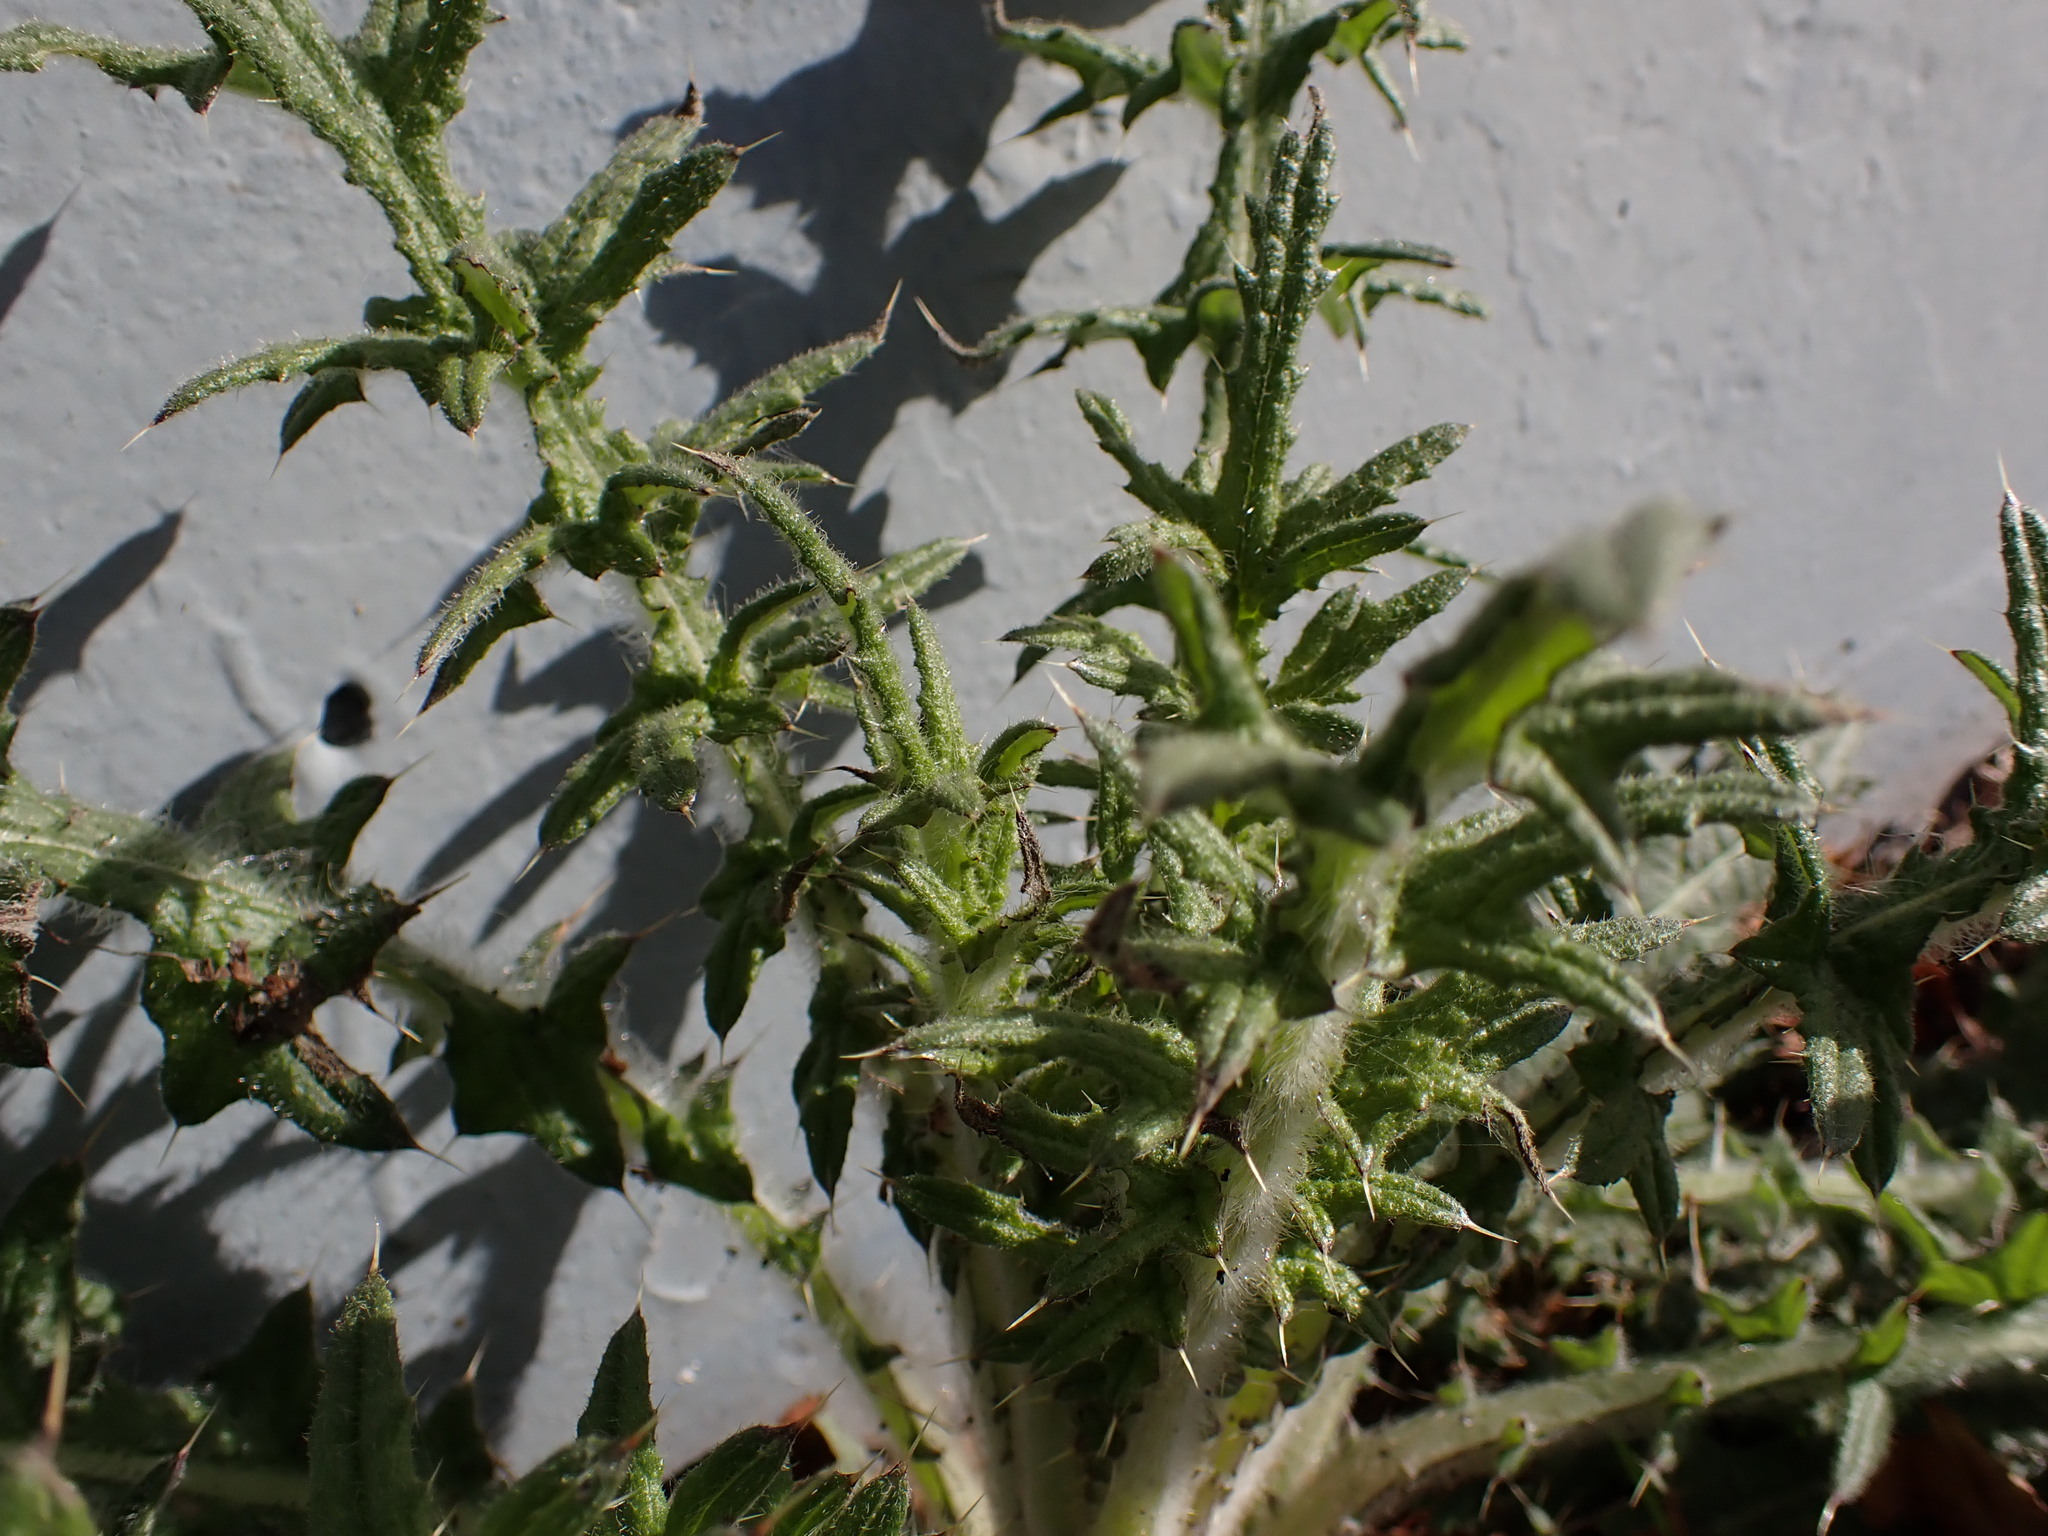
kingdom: Plantae
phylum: Tracheophyta
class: Magnoliopsida
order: Asterales
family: Asteraceae
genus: Cirsium
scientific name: Cirsium vulgare
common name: Bull thistle
